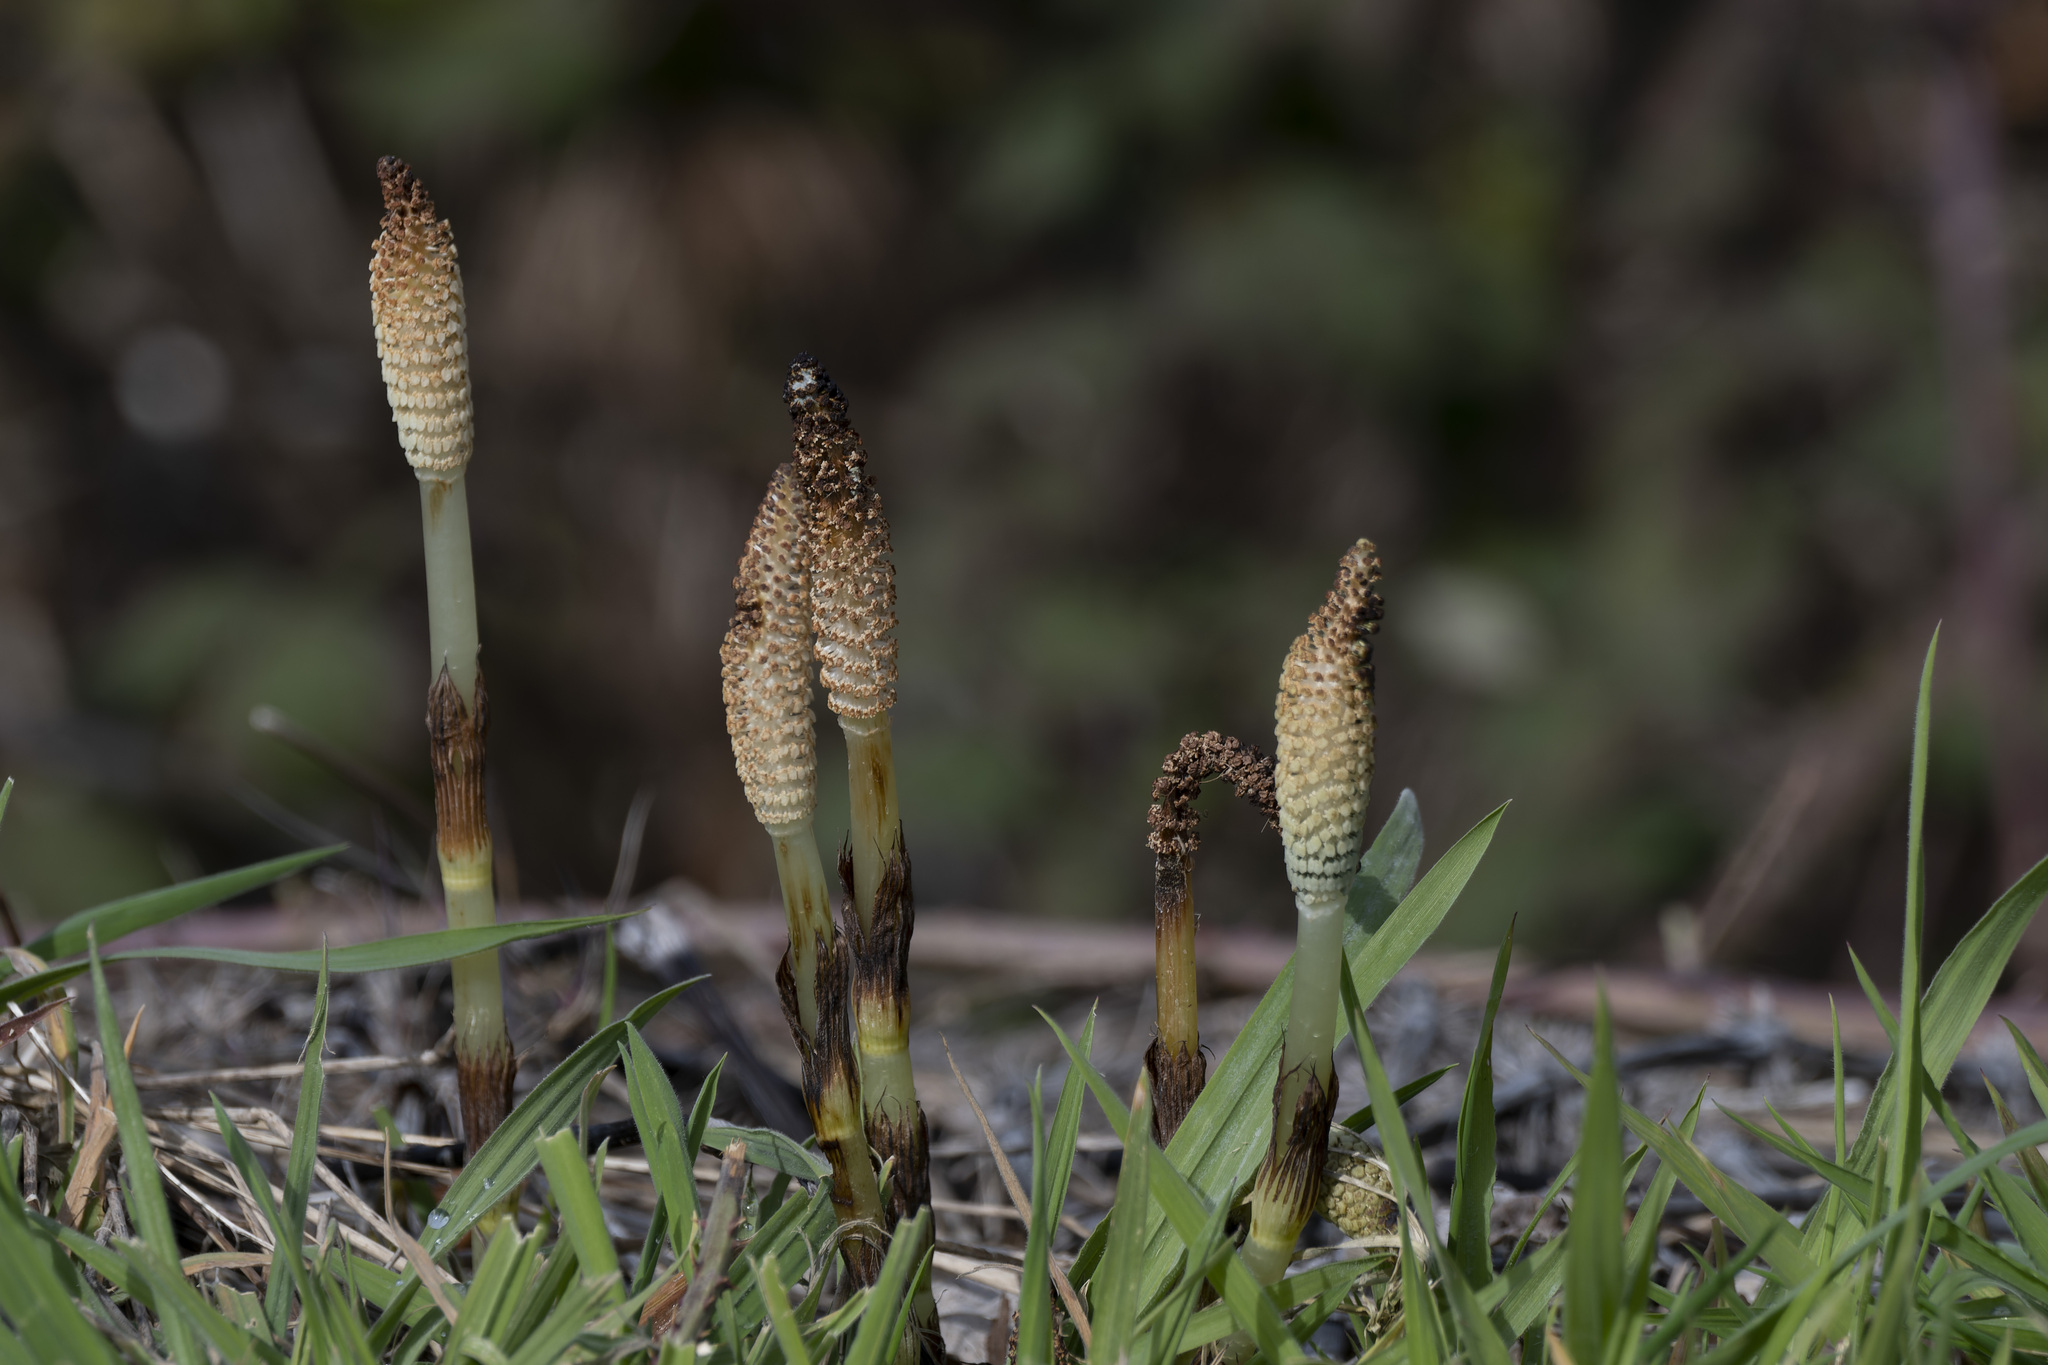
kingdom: Plantae
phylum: Tracheophyta
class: Polypodiopsida
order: Equisetales
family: Equisetaceae
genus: Equisetum
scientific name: Equisetum telmateia
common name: Great horsetail
